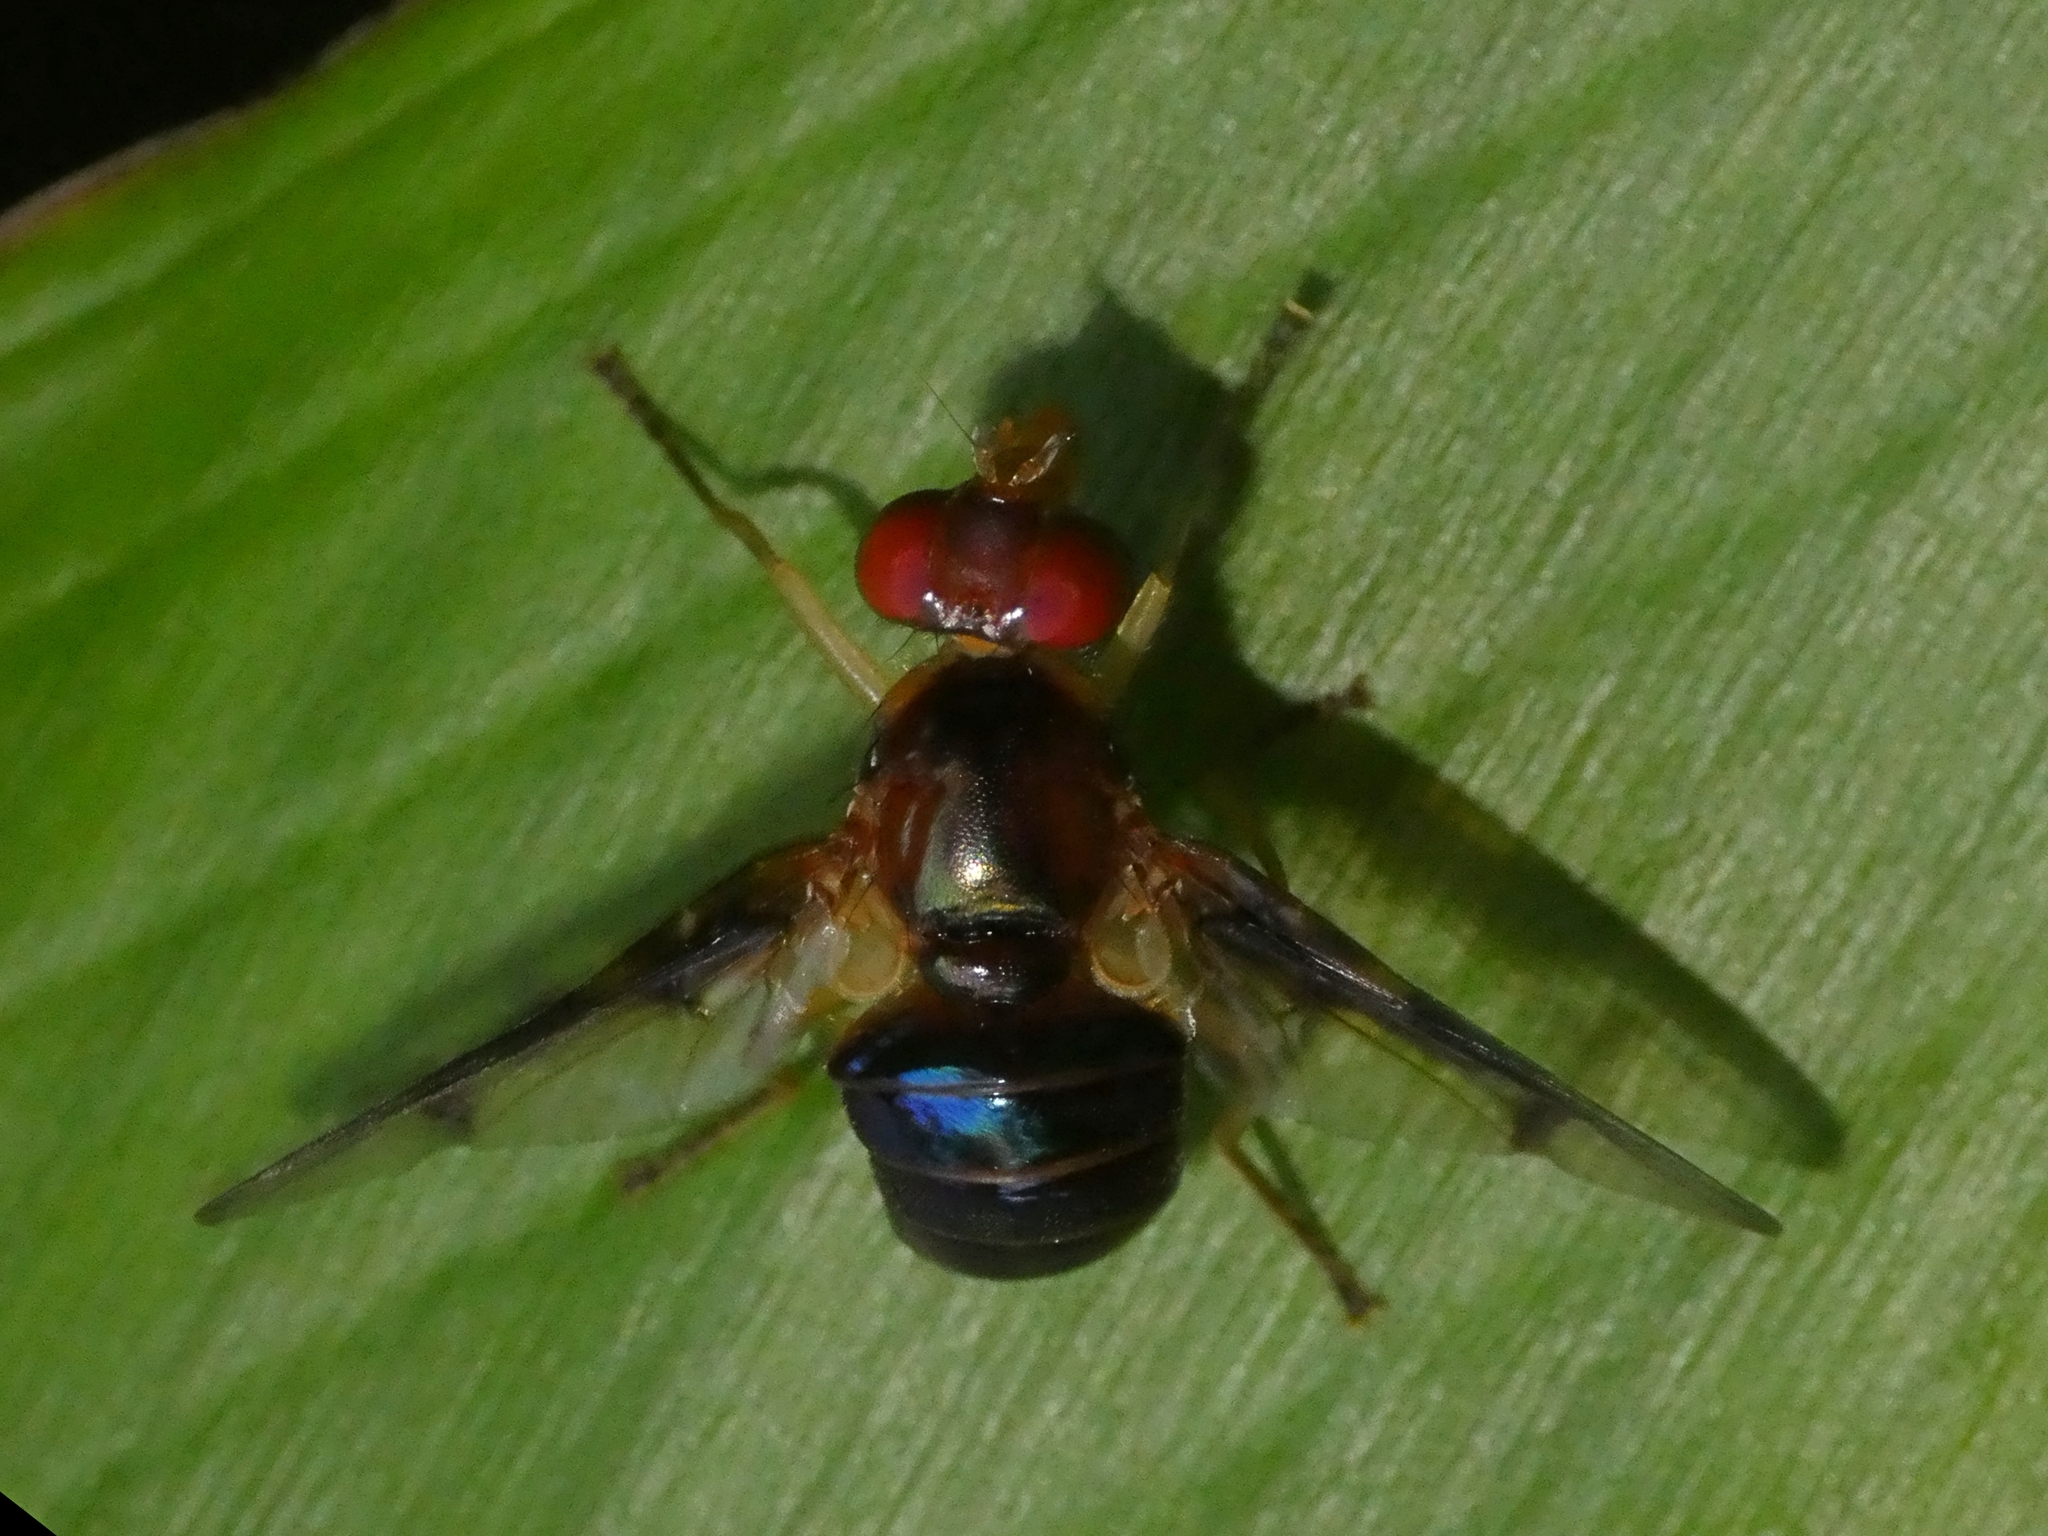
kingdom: Animalia
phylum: Arthropoda
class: Insecta
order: Diptera
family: Platystomatidae
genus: Lamprogaster
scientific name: Lamprogaster stenoparia
